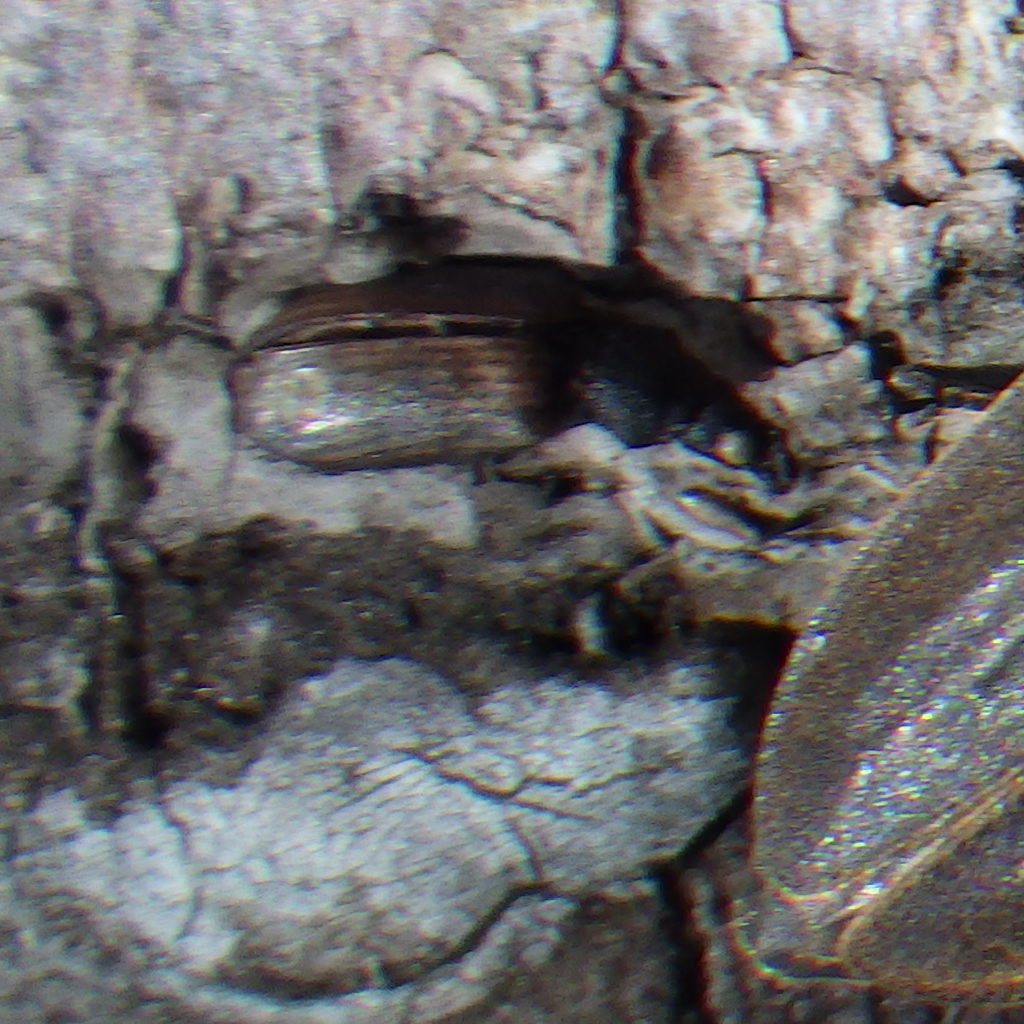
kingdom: Animalia
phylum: Arthropoda
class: Insecta
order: Coleoptera
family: Curculionidae
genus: Phyllobius
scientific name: Phyllobius oblongus
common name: Brown leaf weevil
